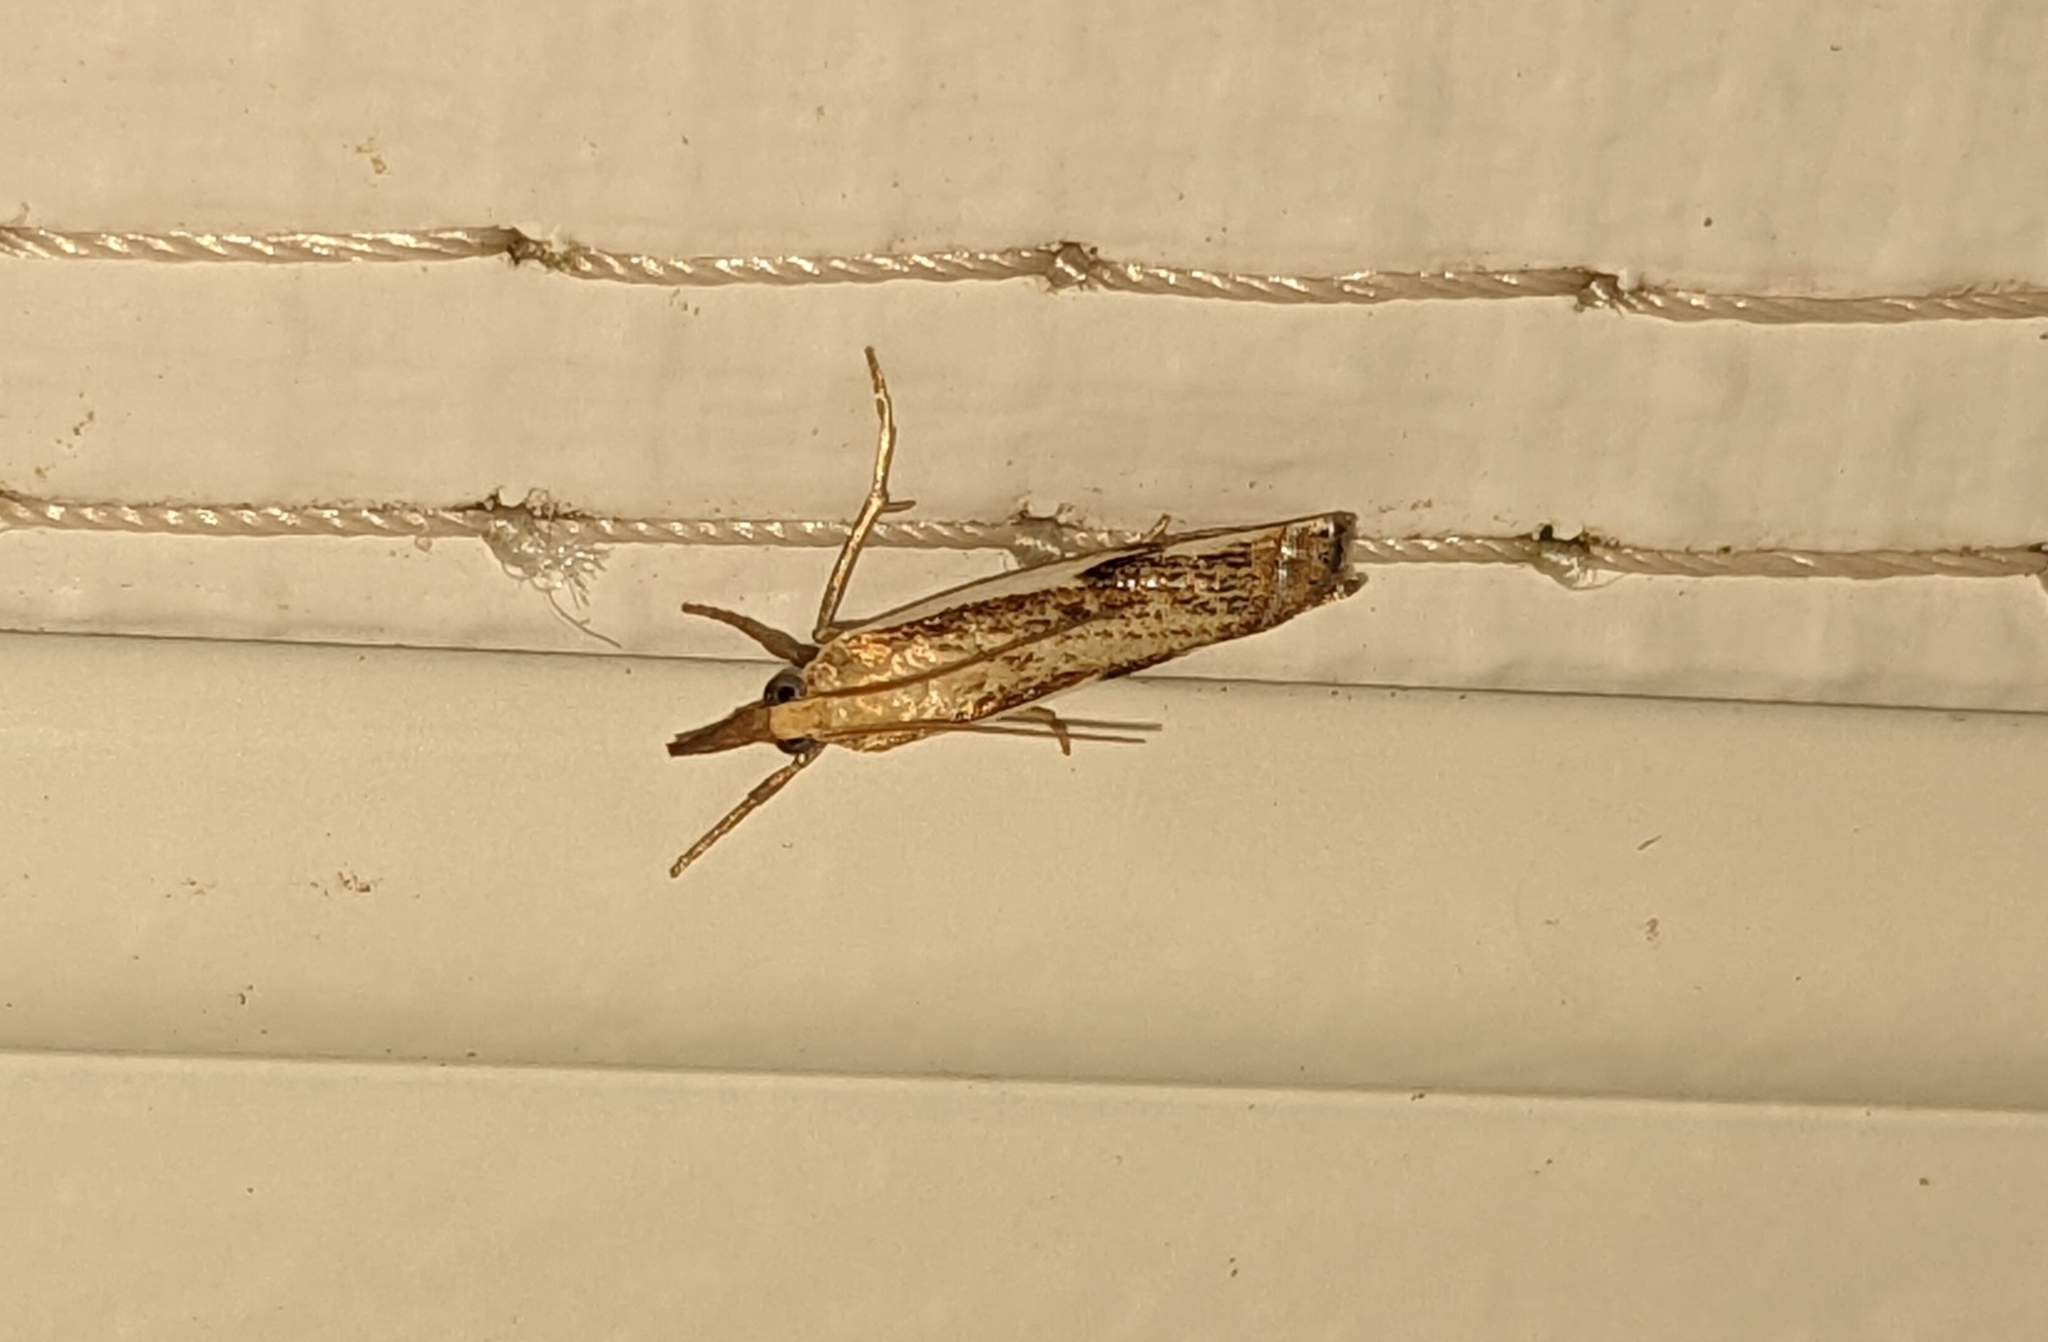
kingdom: Animalia
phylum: Arthropoda
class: Insecta
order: Lepidoptera
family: Crambidae
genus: Crambus
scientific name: Crambus agitatellus
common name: Double-banded grass-veneer
